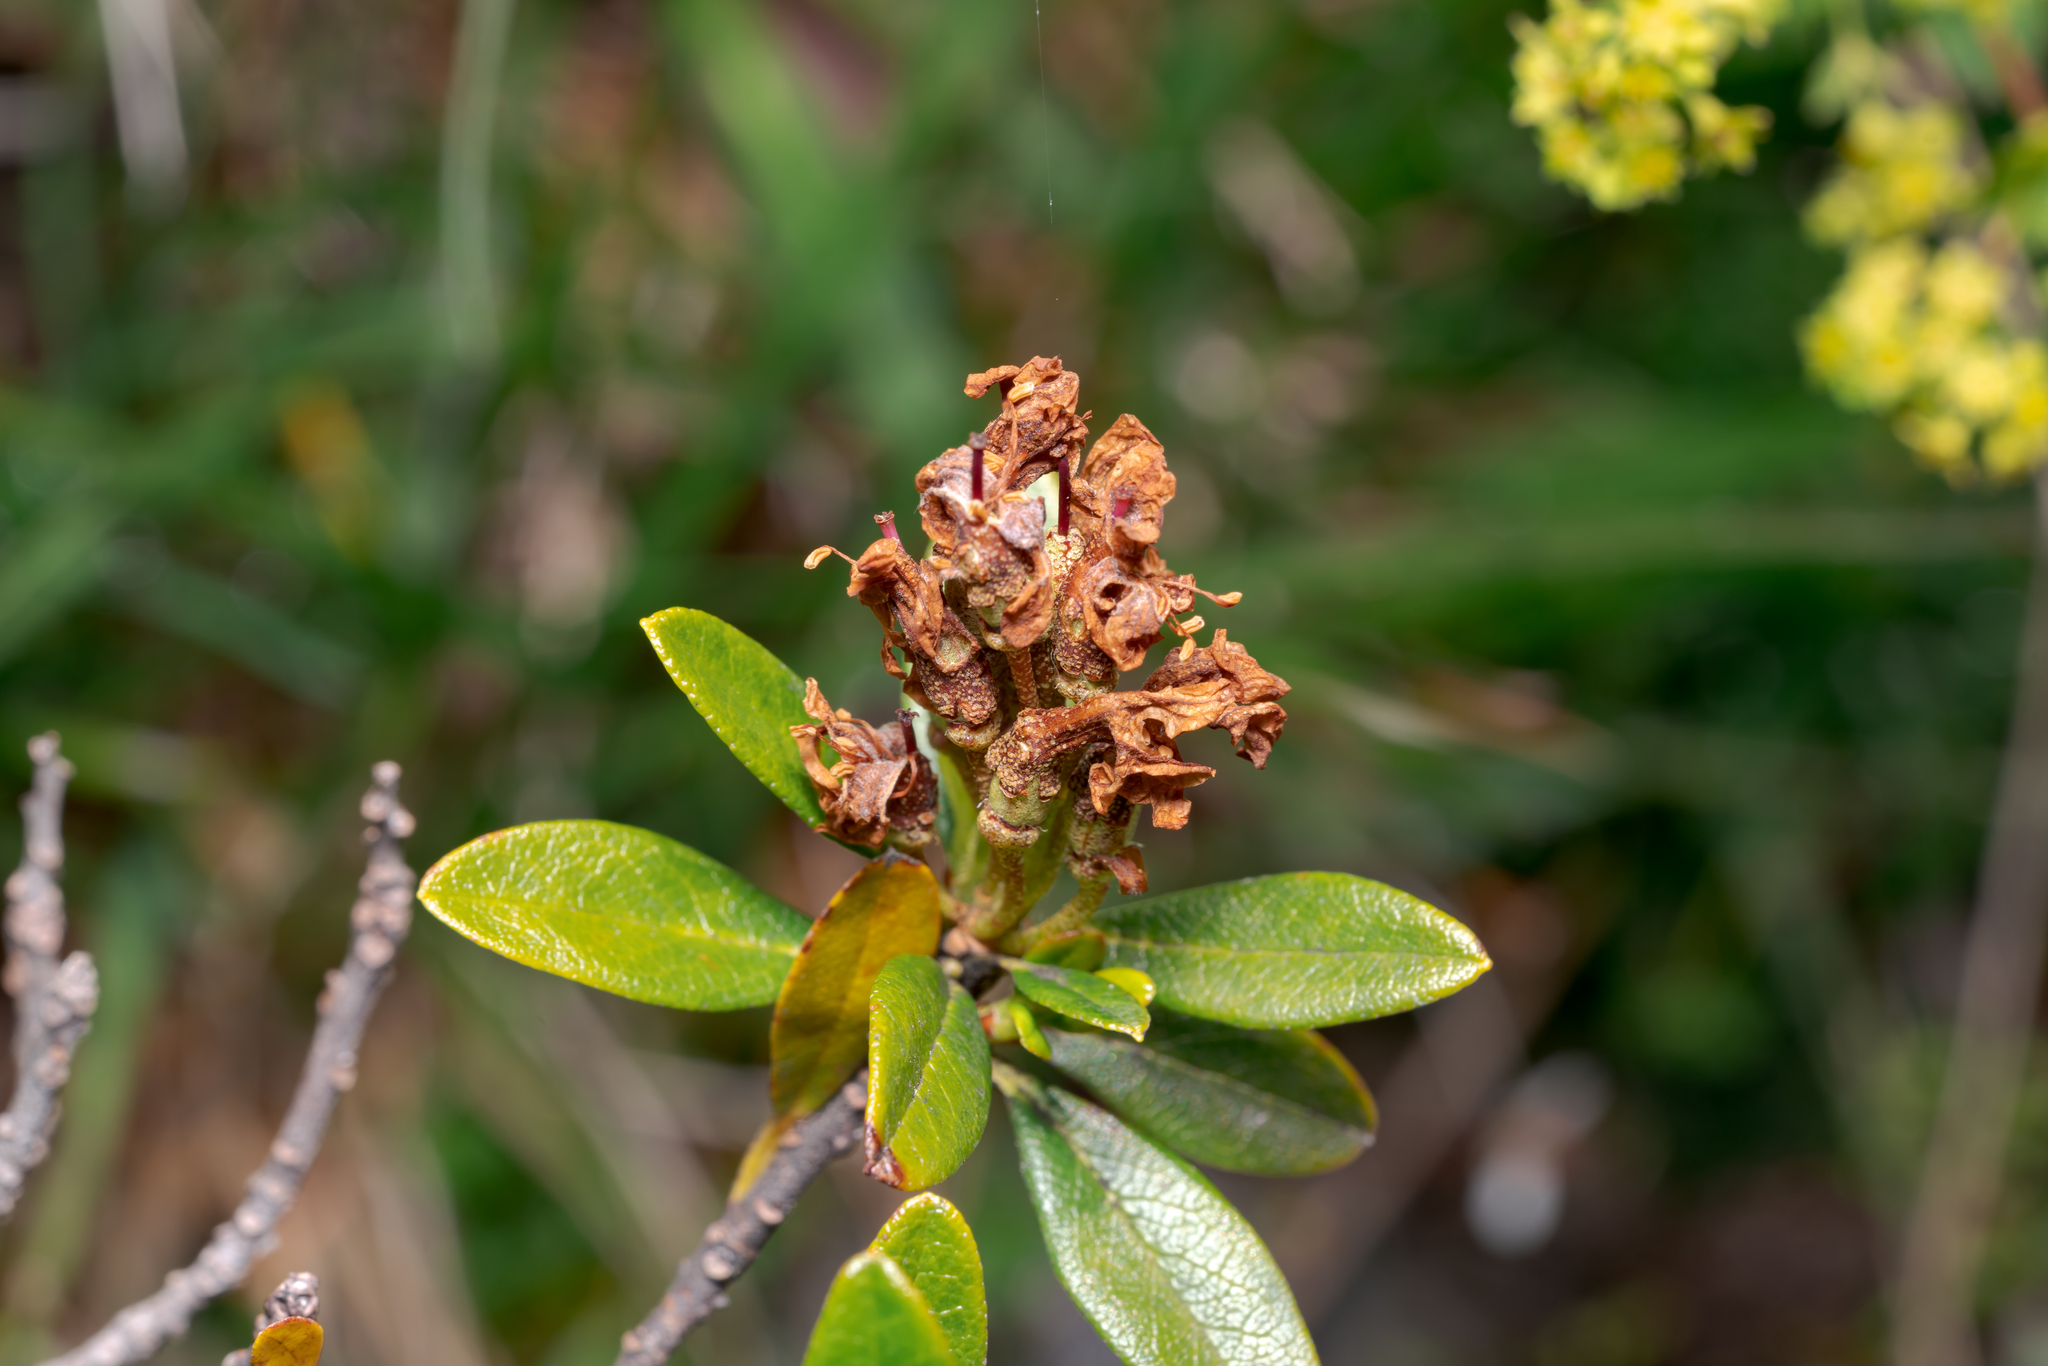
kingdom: Plantae
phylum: Tracheophyta
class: Magnoliopsida
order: Ericales
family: Ericaceae
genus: Rhododendron
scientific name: Rhododendron ferrugineum
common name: Alpenrose
